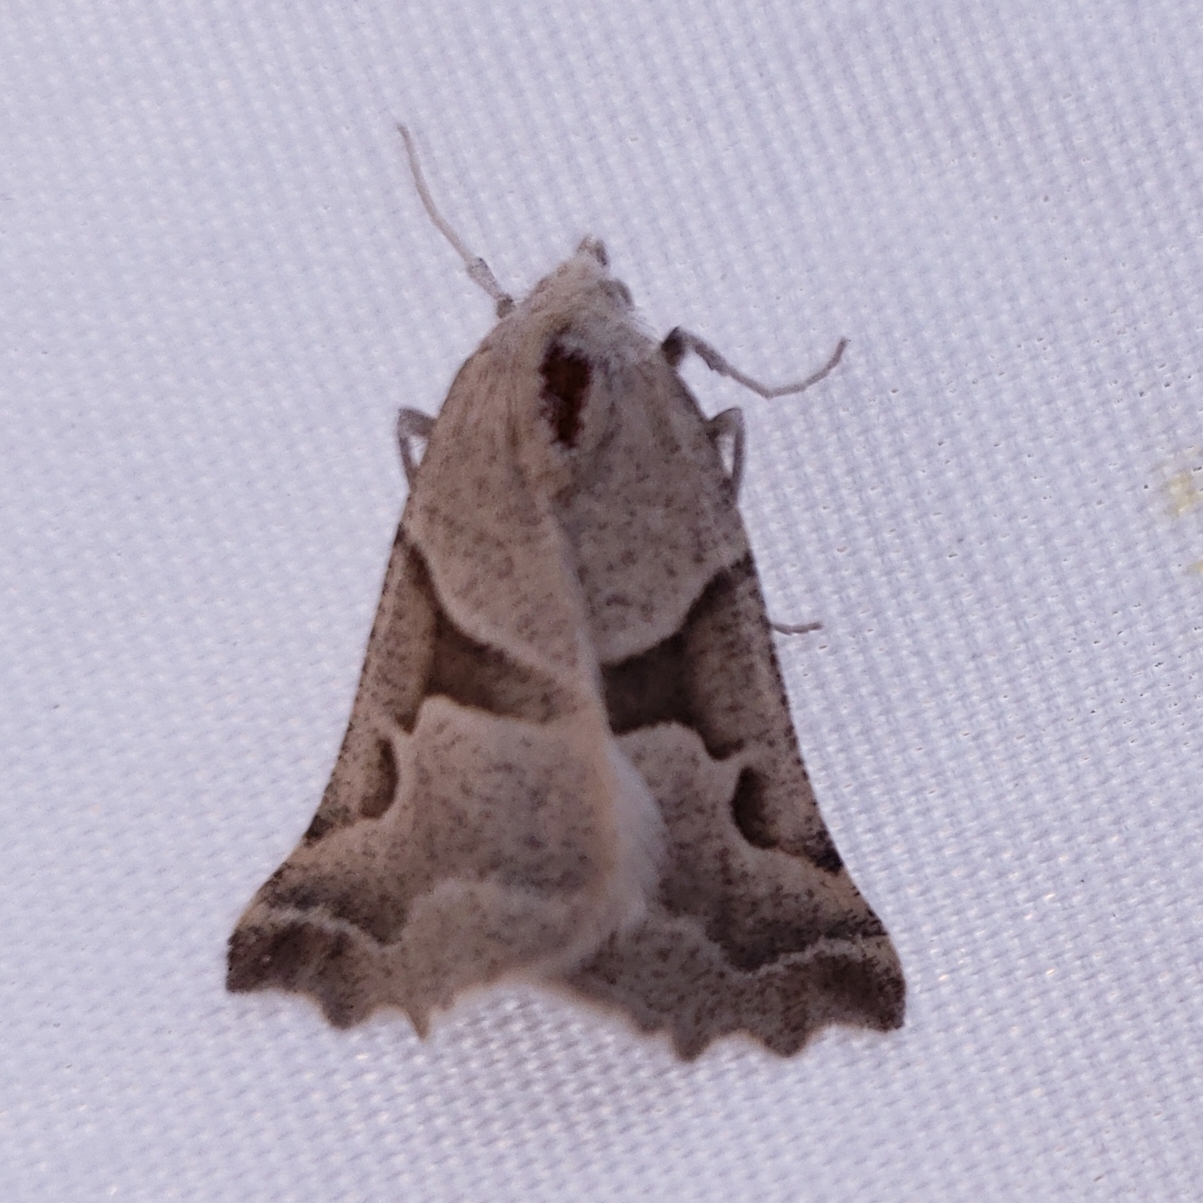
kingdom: Animalia
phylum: Arthropoda
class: Insecta
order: Lepidoptera
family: Geometridae
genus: Plataea
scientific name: Plataea calcaria
